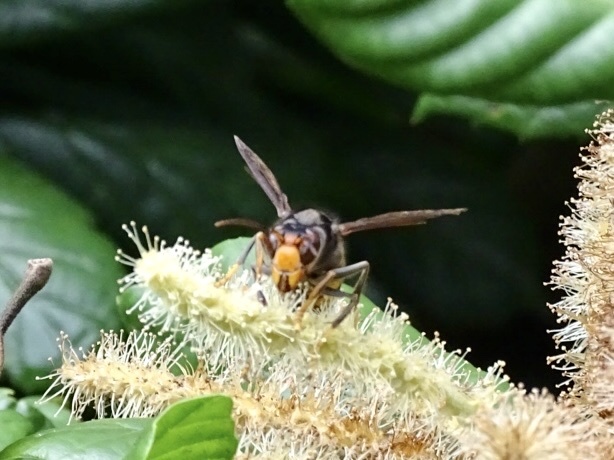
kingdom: Animalia
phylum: Arthropoda
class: Insecta
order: Hymenoptera
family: Vespidae
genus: Vespa
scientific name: Vespa velutina
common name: Asian hornet
